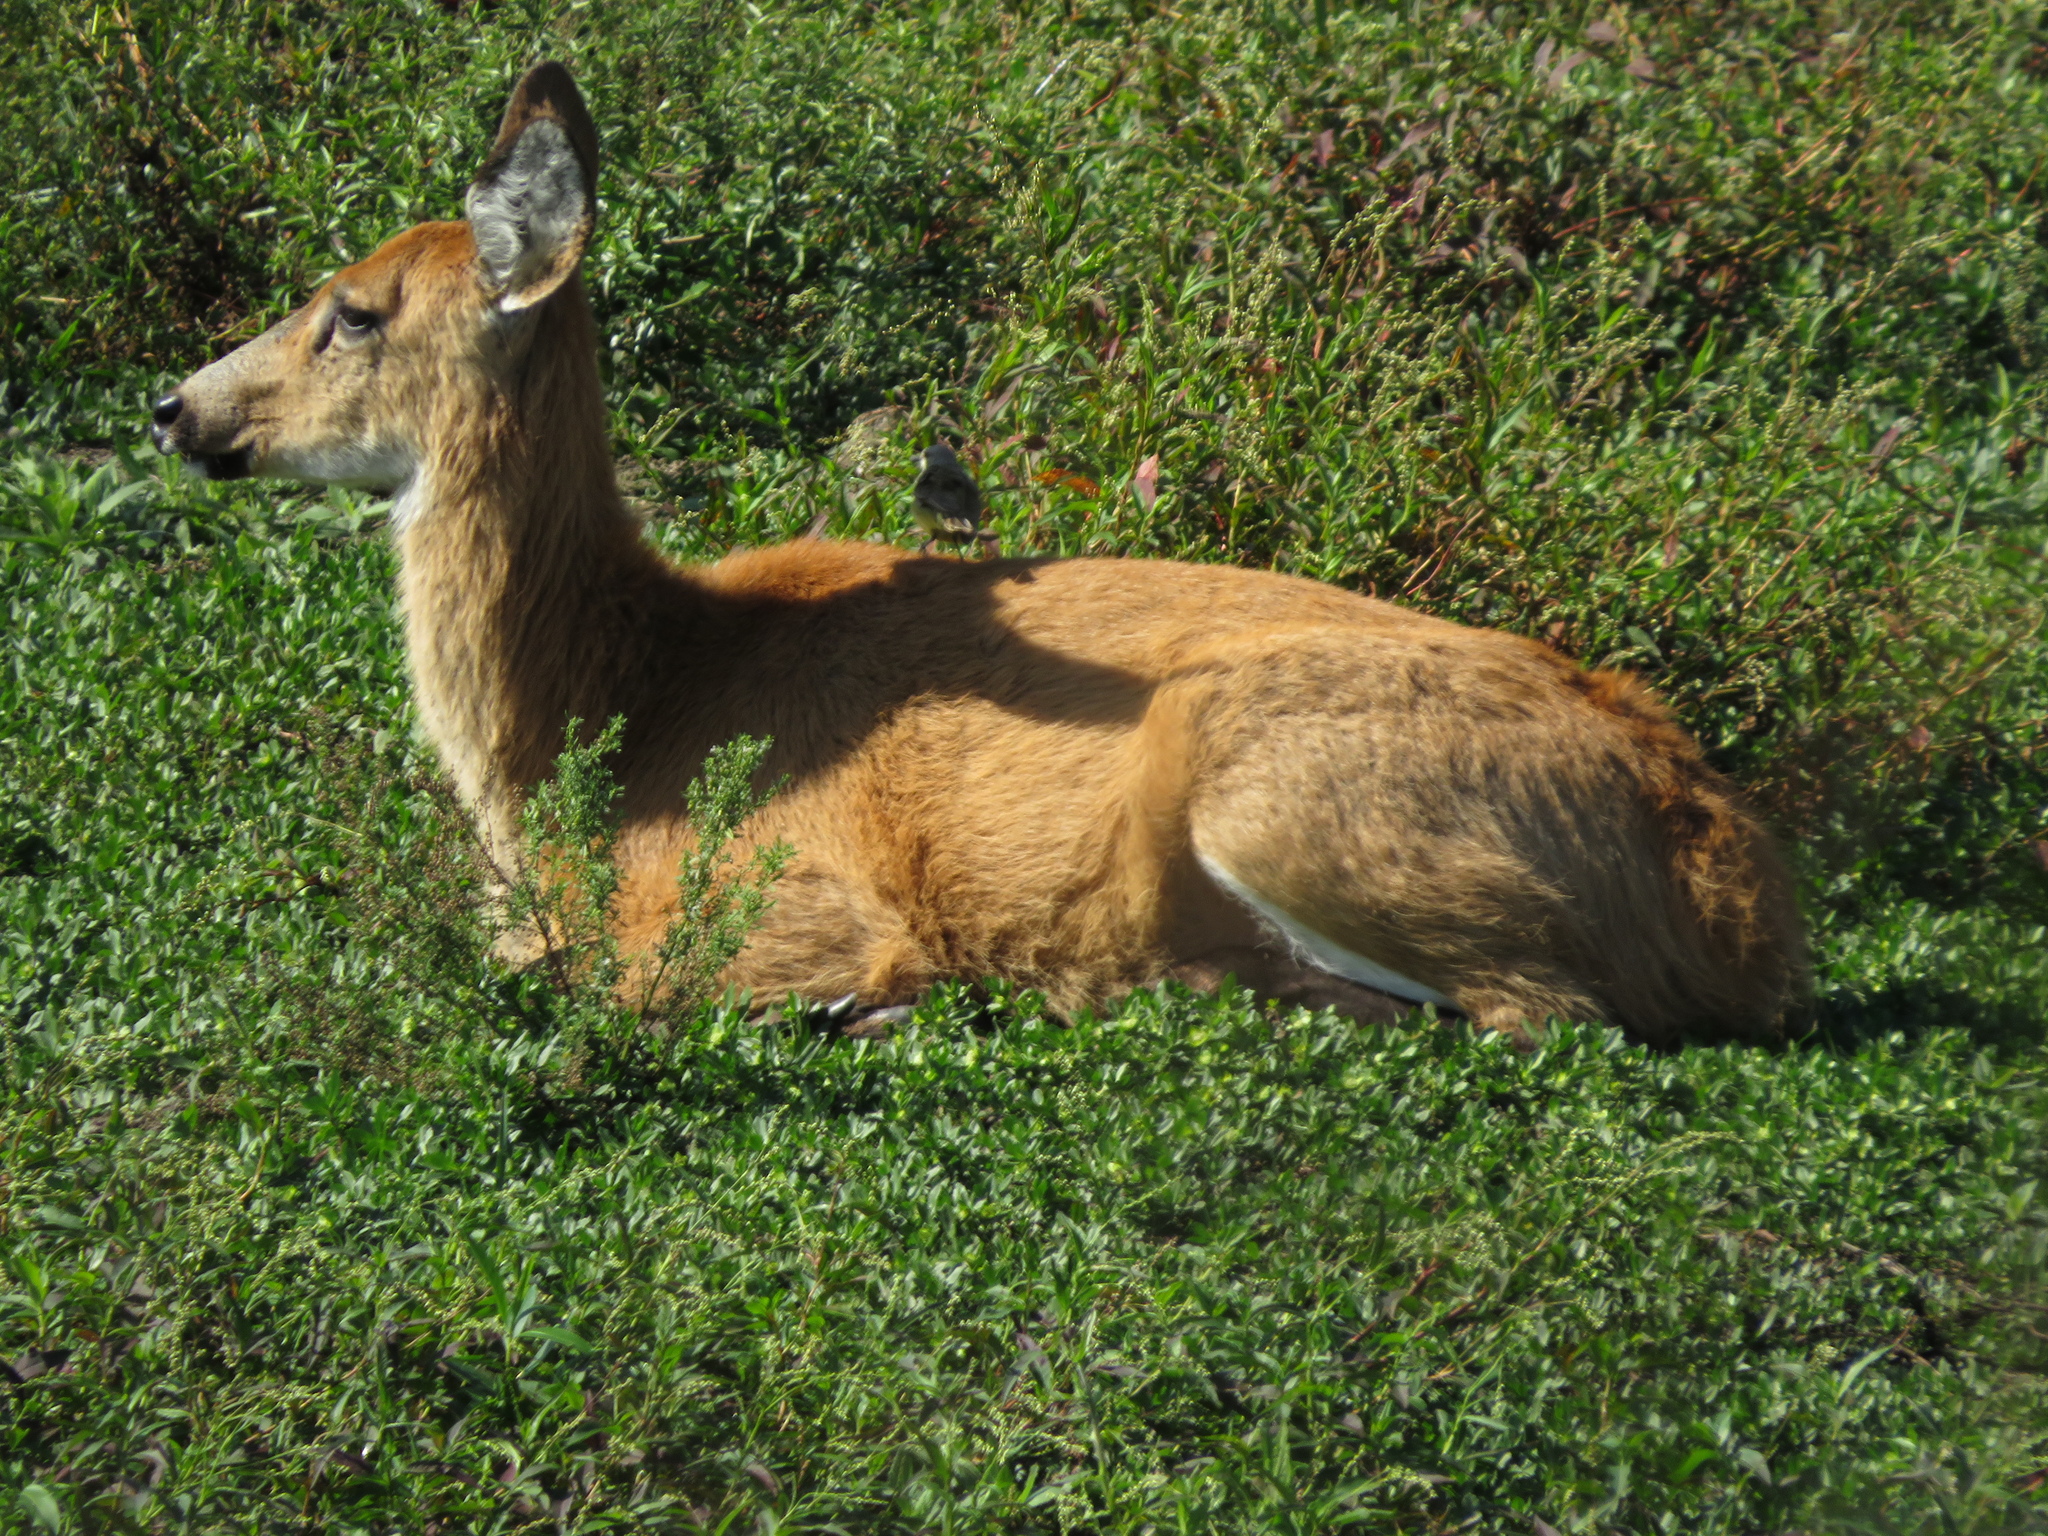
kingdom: Animalia
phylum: Chordata
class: Mammalia
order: Artiodactyla
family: Cervidae
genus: Blastocerus
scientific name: Blastocerus dichotomus
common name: Marsh deer
